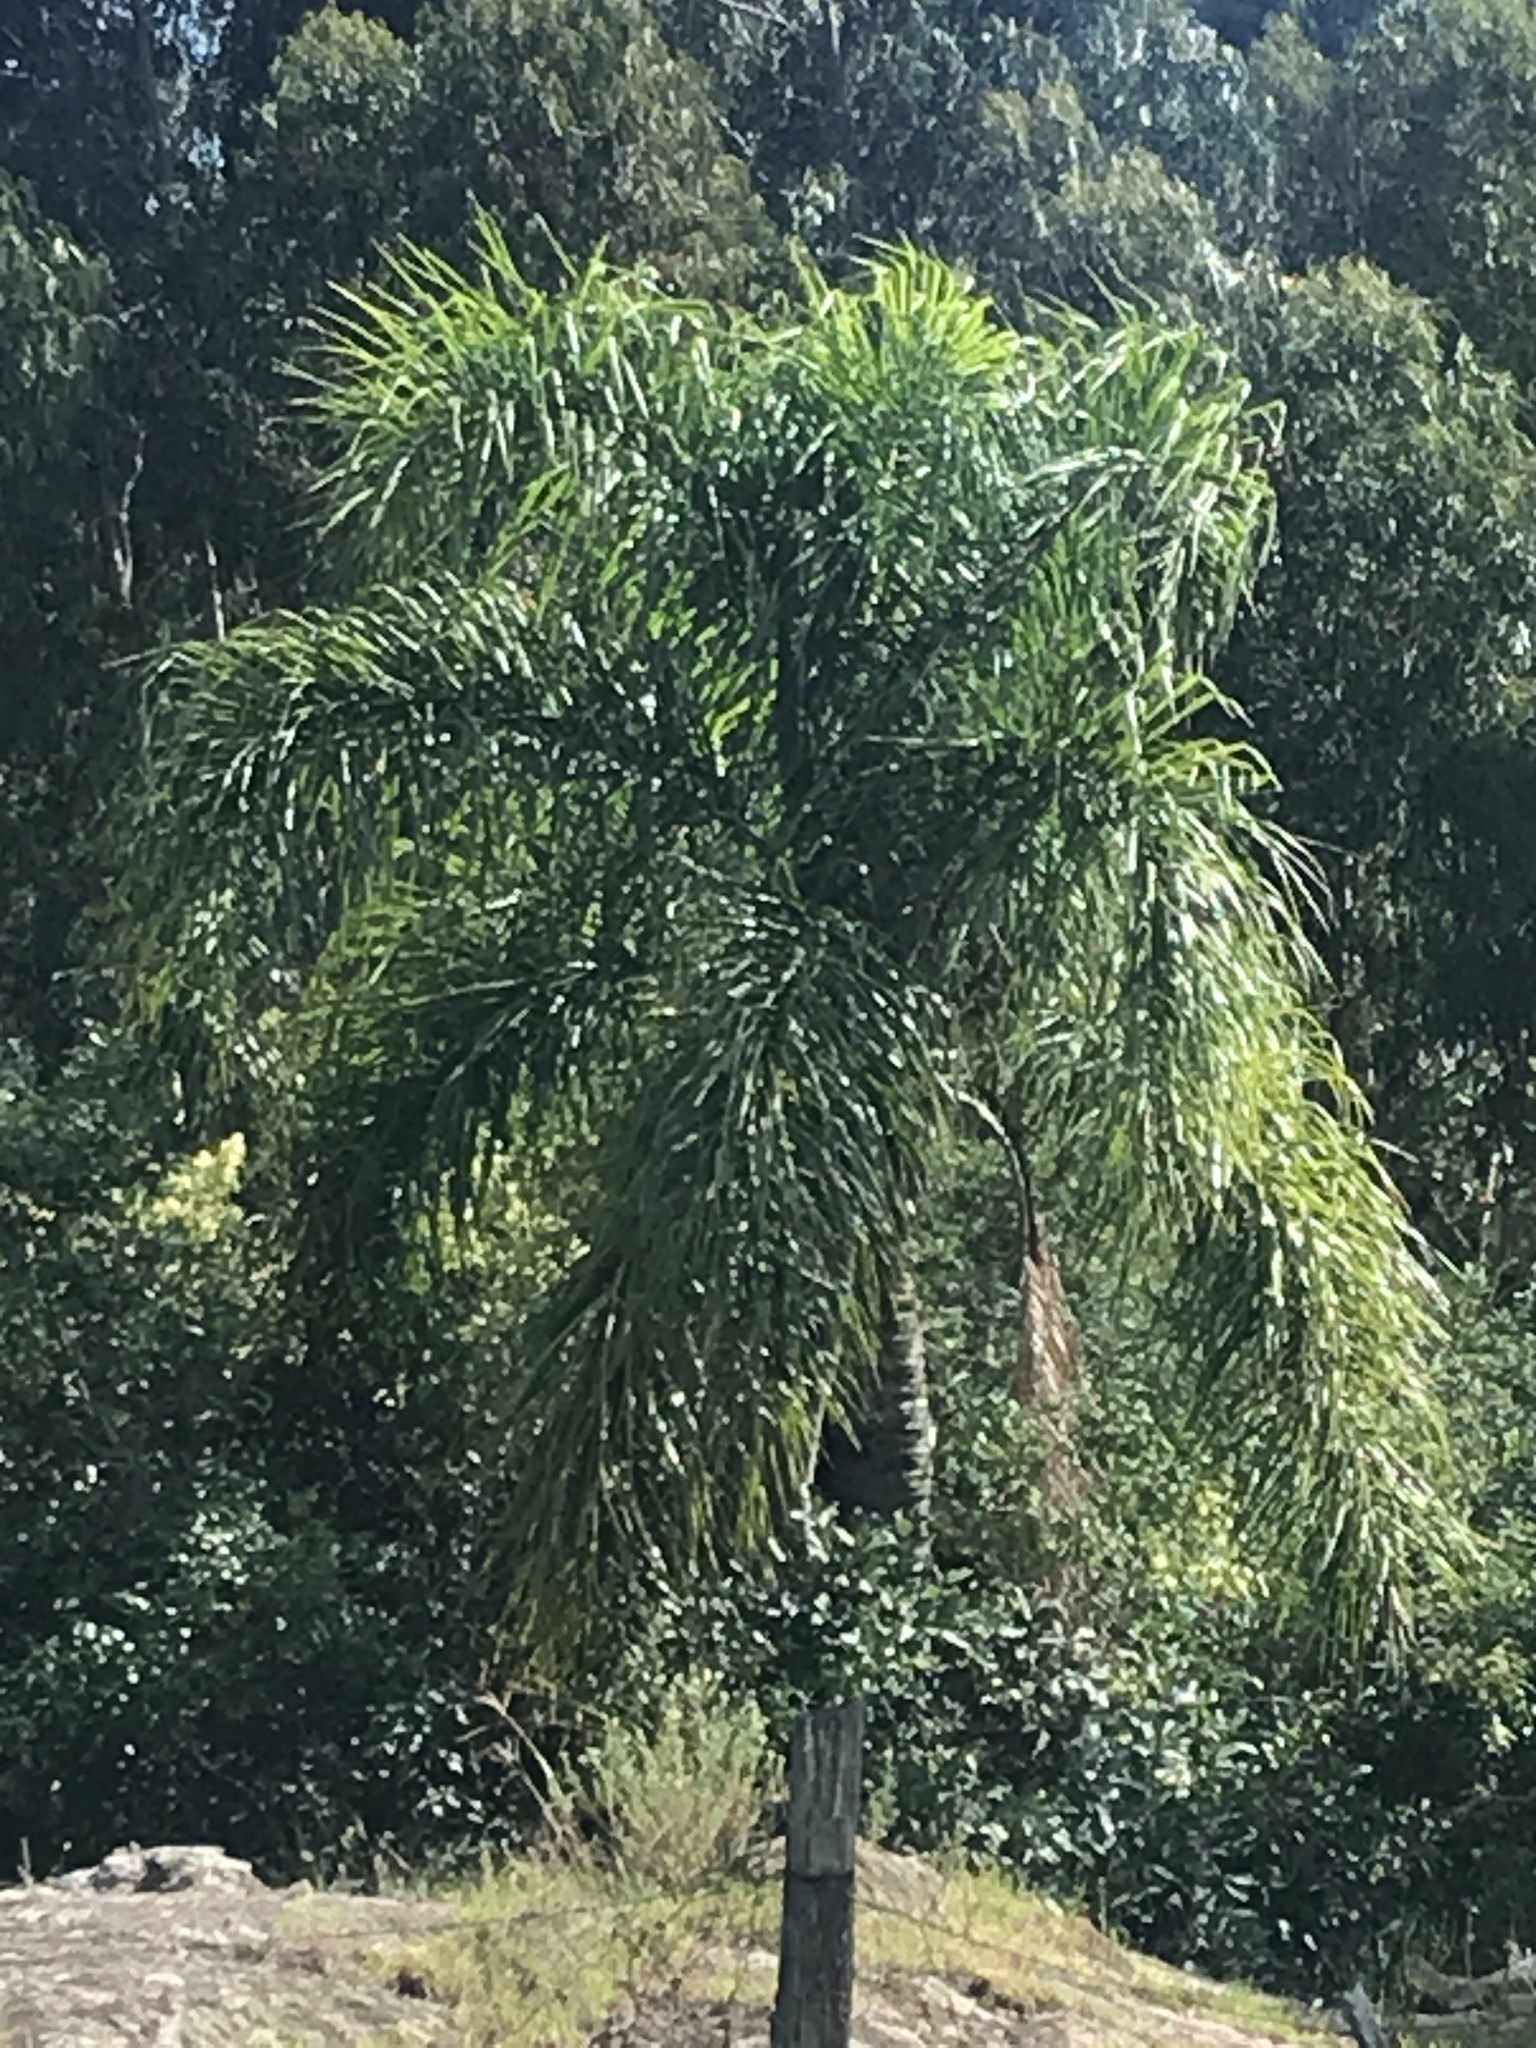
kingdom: Plantae
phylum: Tracheophyta
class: Liliopsida
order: Arecales
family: Arecaceae
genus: Syagrus
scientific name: Syagrus romanzoffiana
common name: Queen palm
